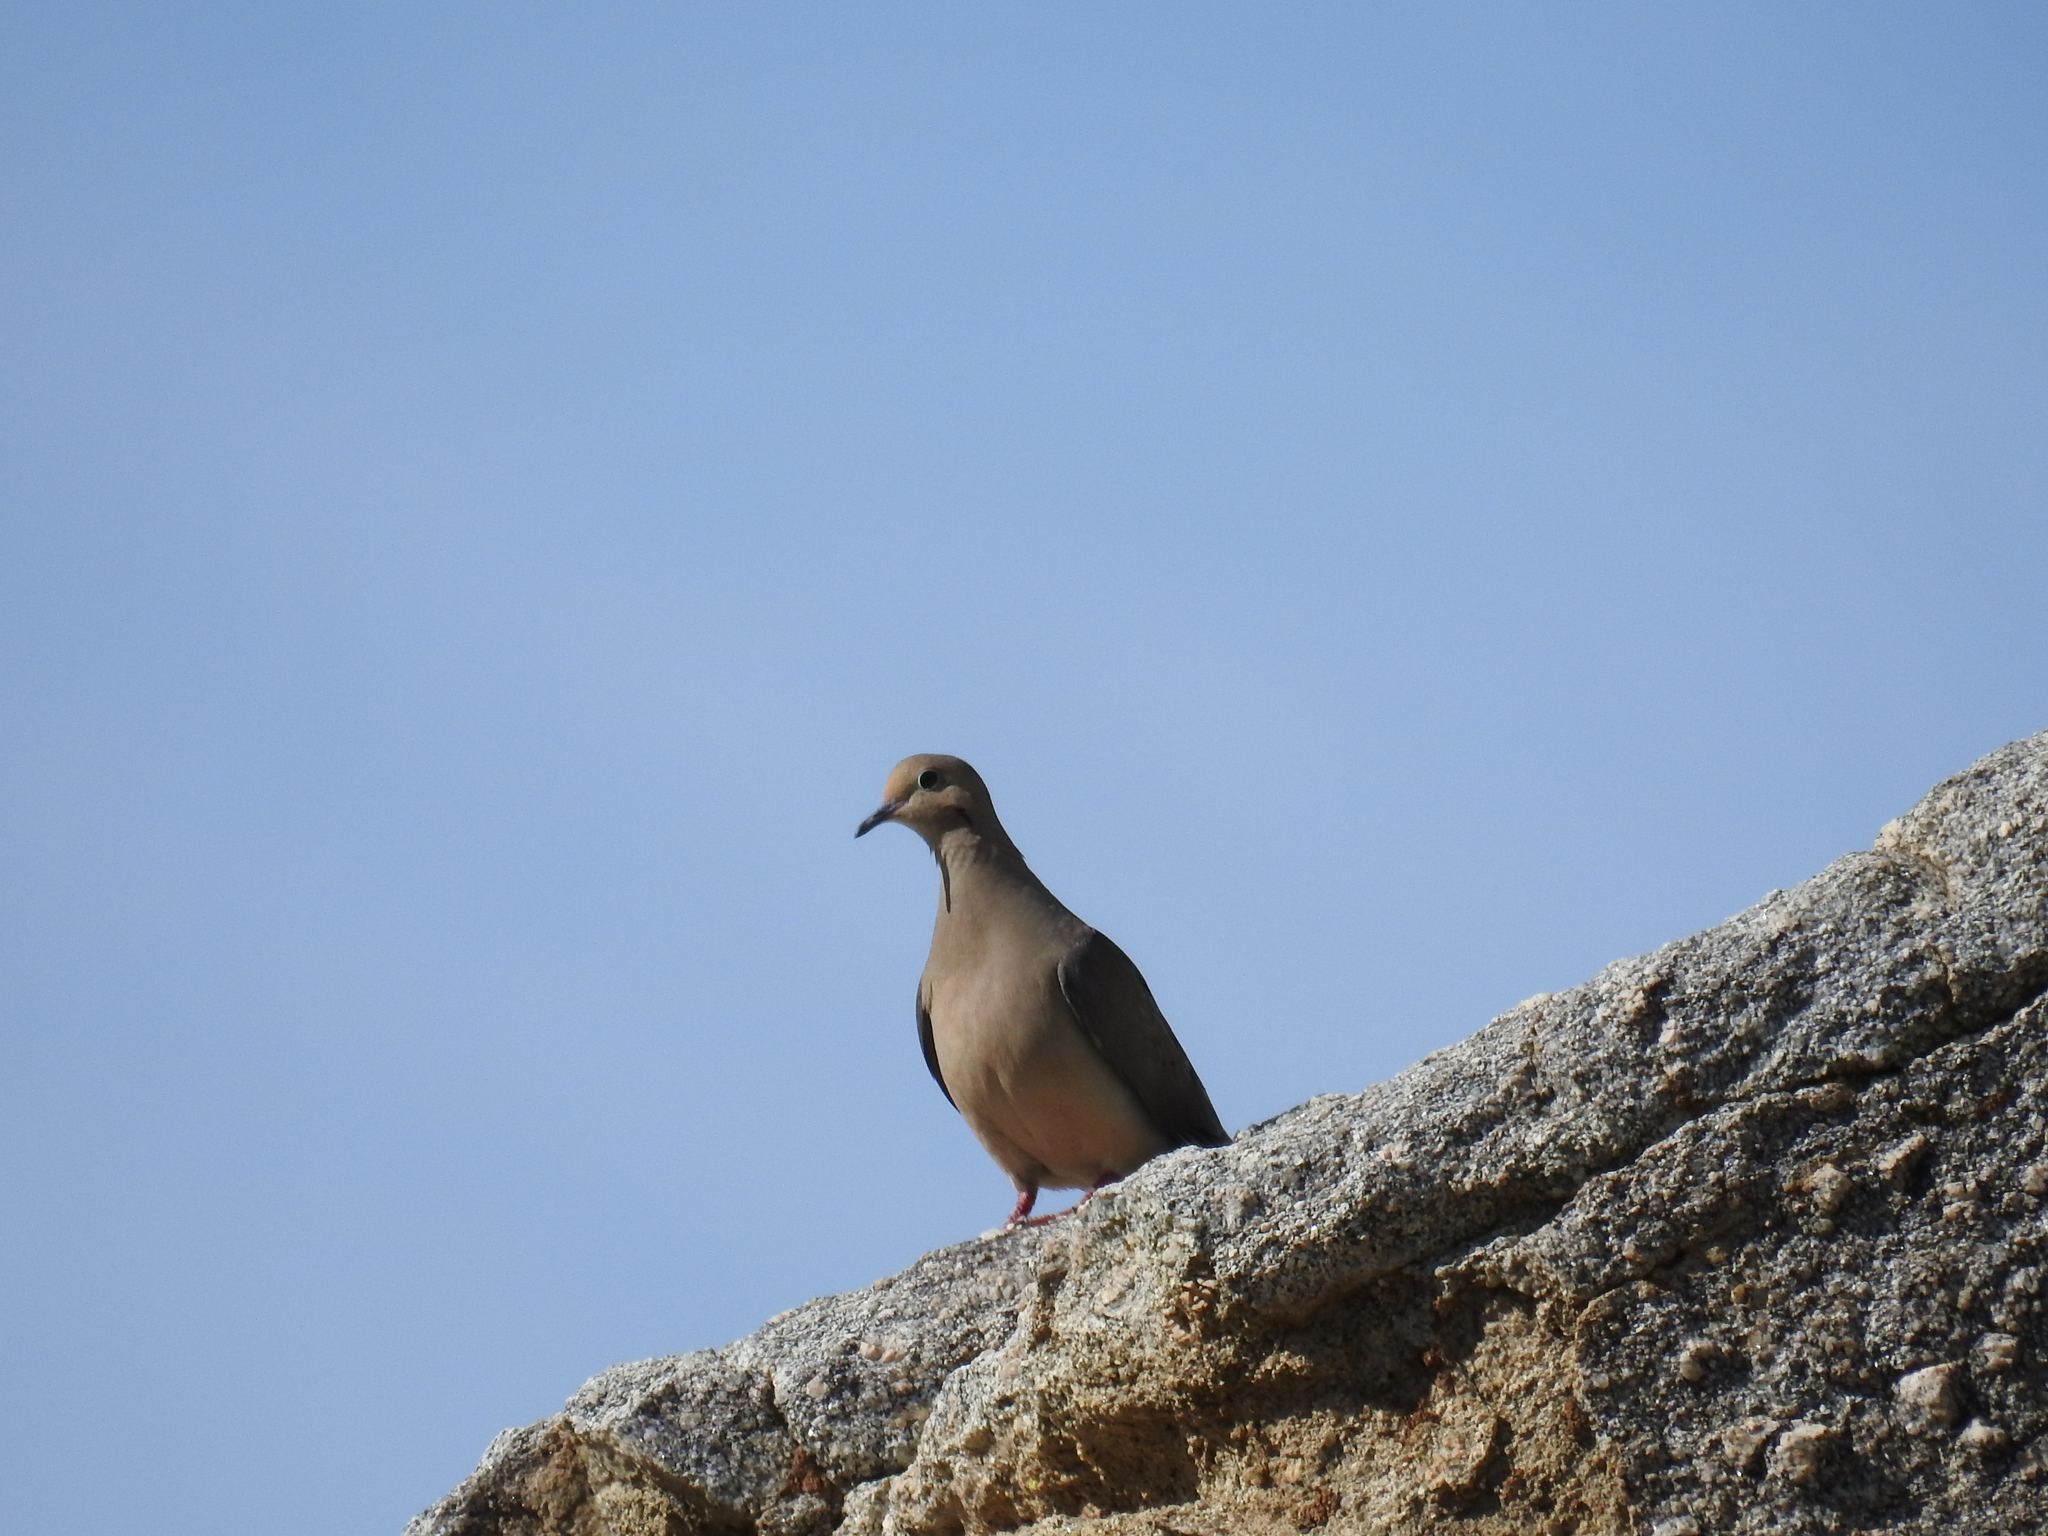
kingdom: Animalia
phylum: Chordata
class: Aves
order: Columbiformes
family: Columbidae
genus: Zenaida
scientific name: Zenaida macroura
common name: Mourning dove
